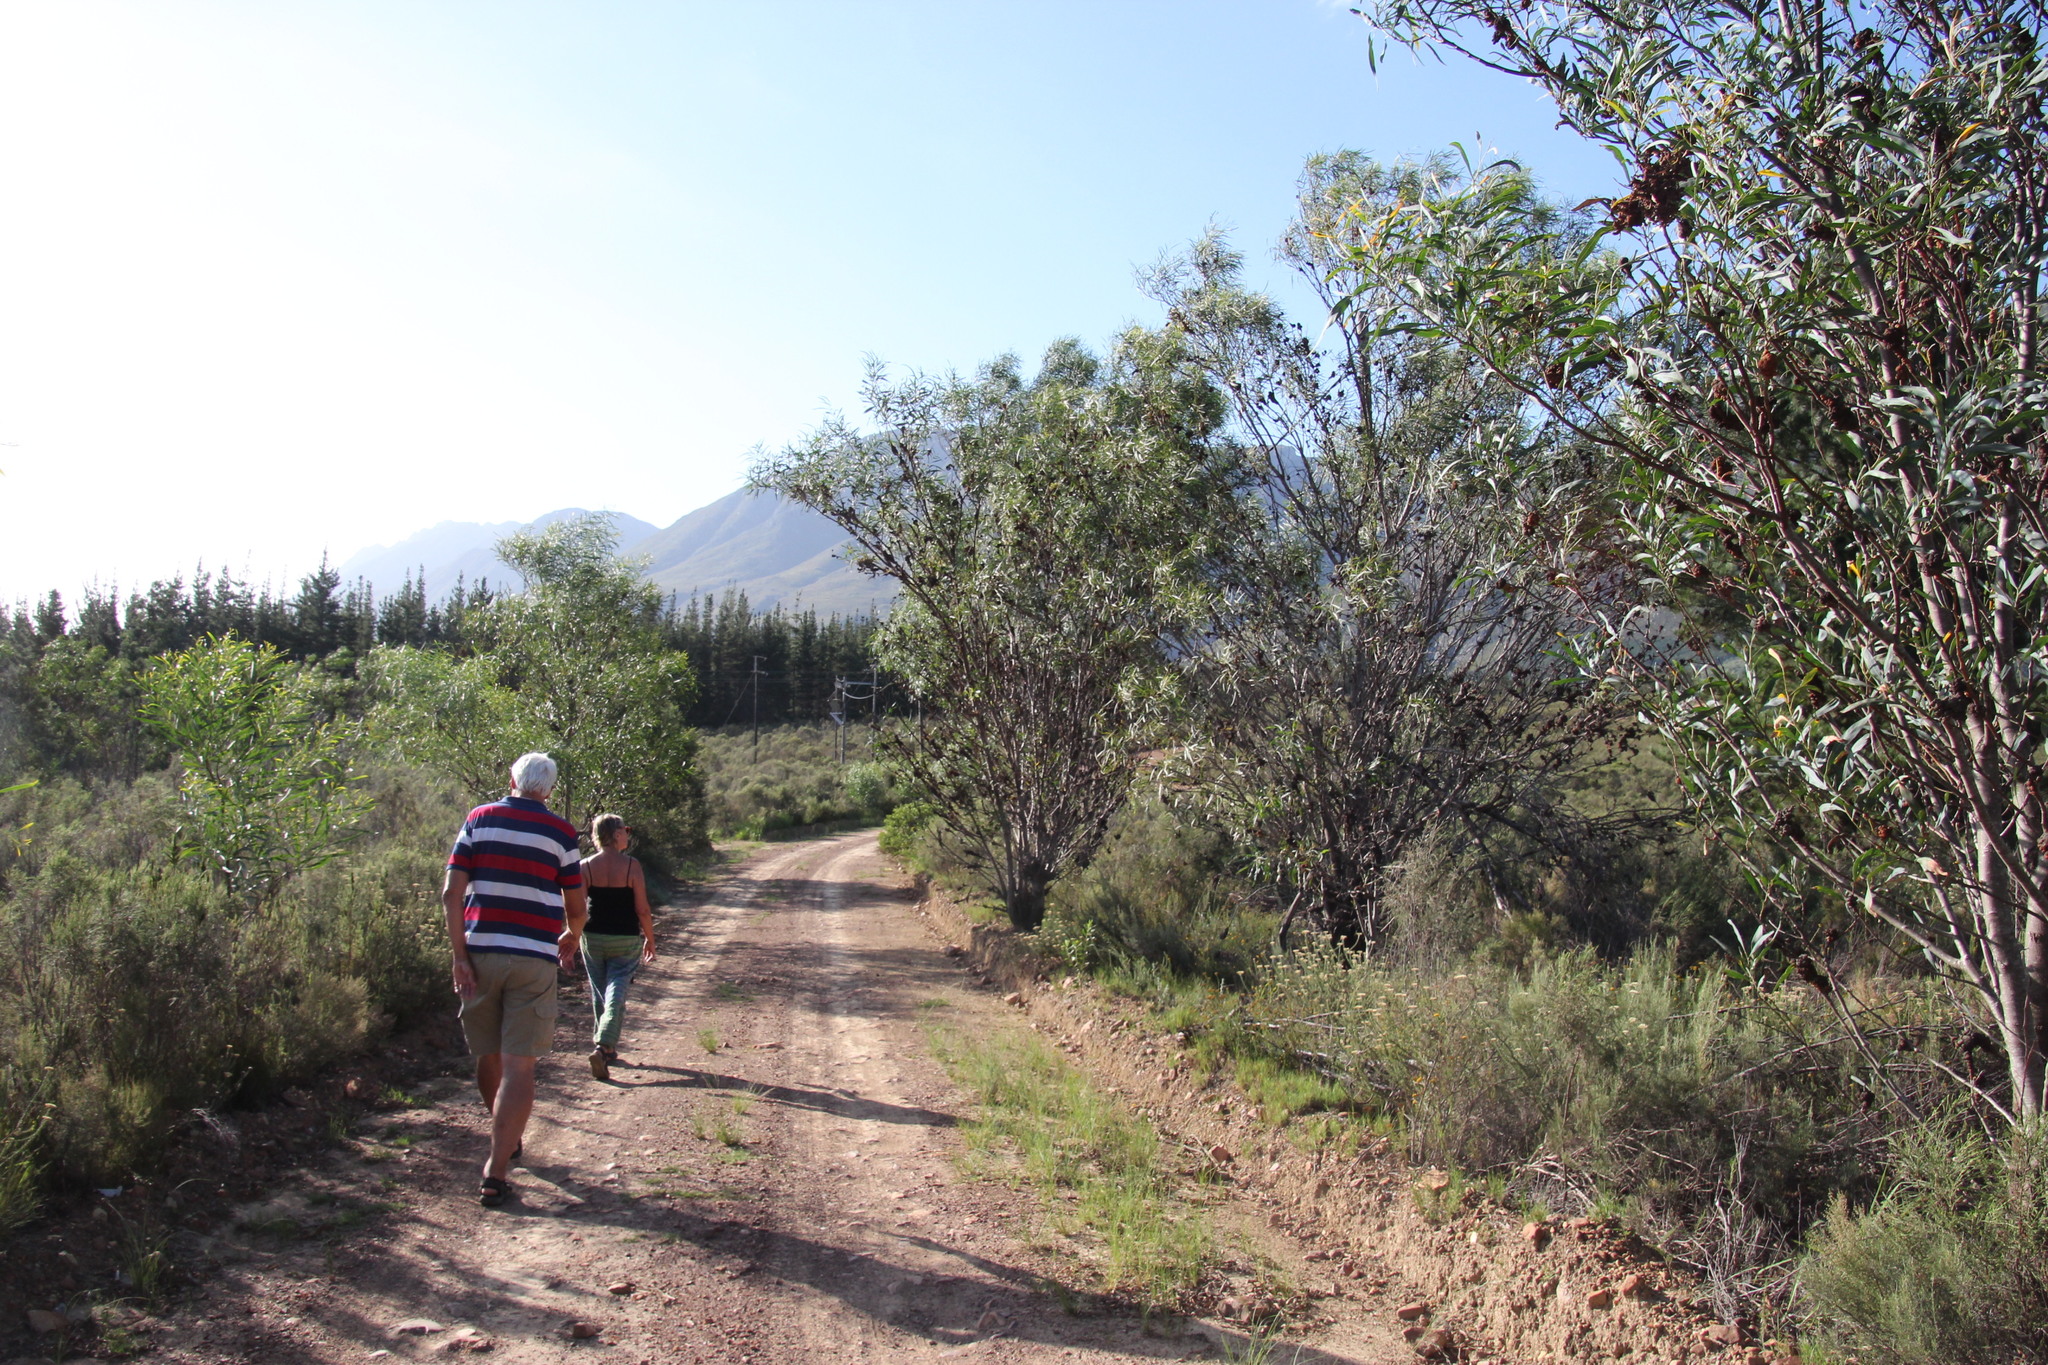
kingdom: Fungi
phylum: Basidiomycota
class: Pucciniomycetes
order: Pucciniales
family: Uromycladiaceae
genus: Uromycladium
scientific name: Uromycladium morrisii
